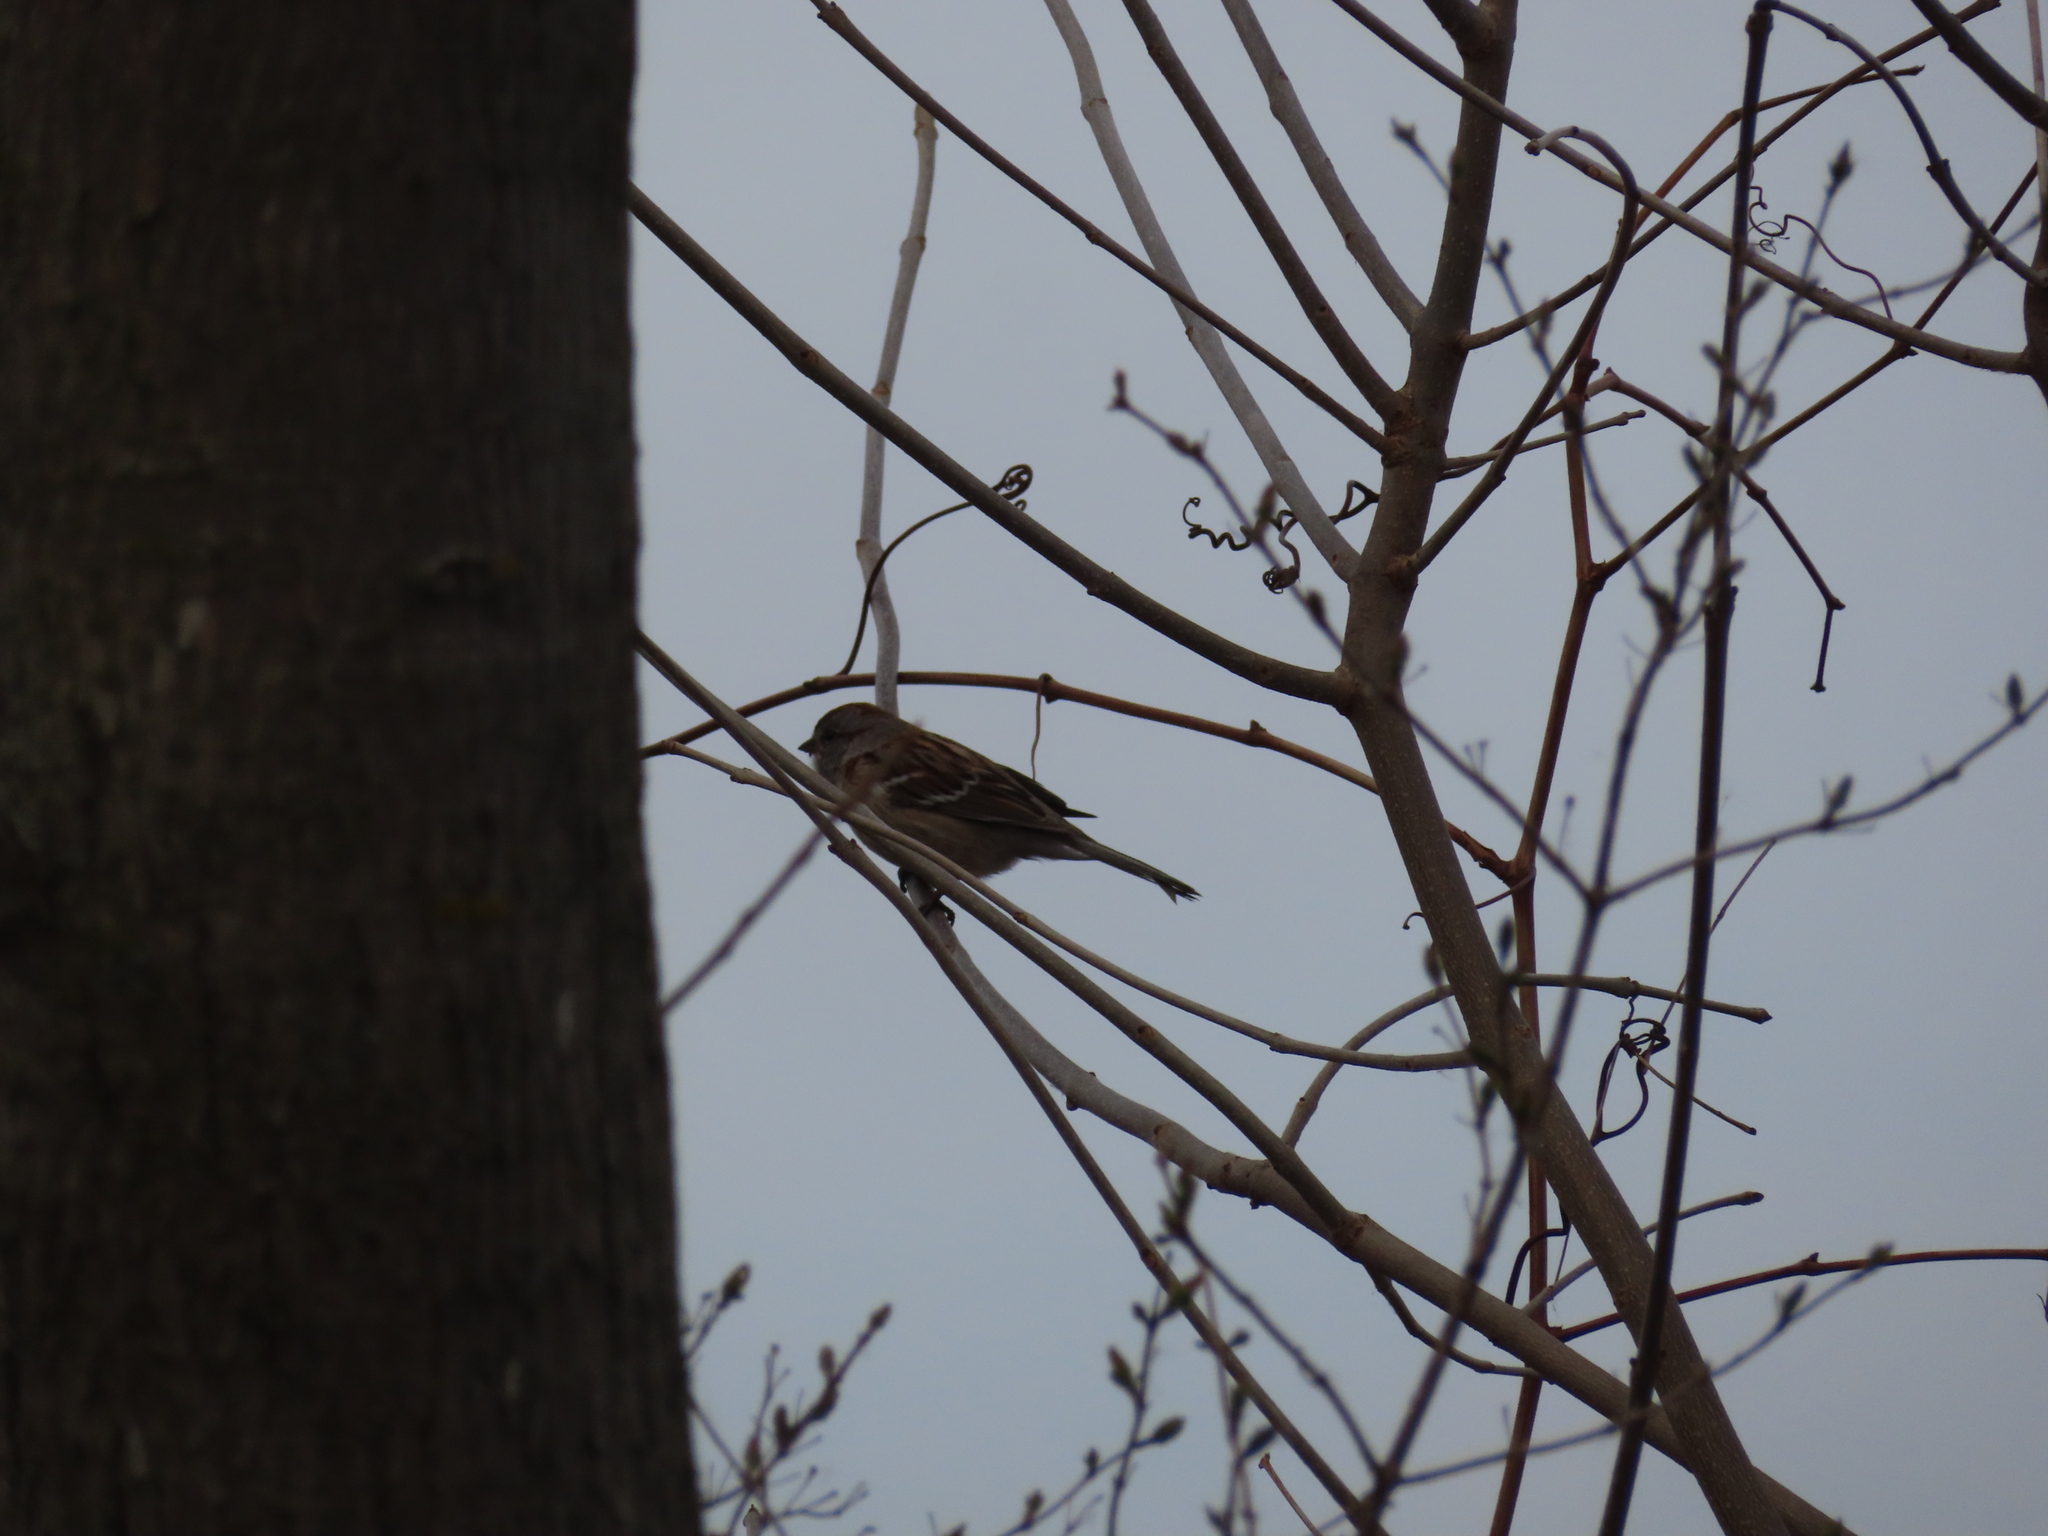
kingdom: Animalia
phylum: Chordata
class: Aves
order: Passeriformes
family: Passerellidae
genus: Spizelloides
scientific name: Spizelloides arborea
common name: American tree sparrow
